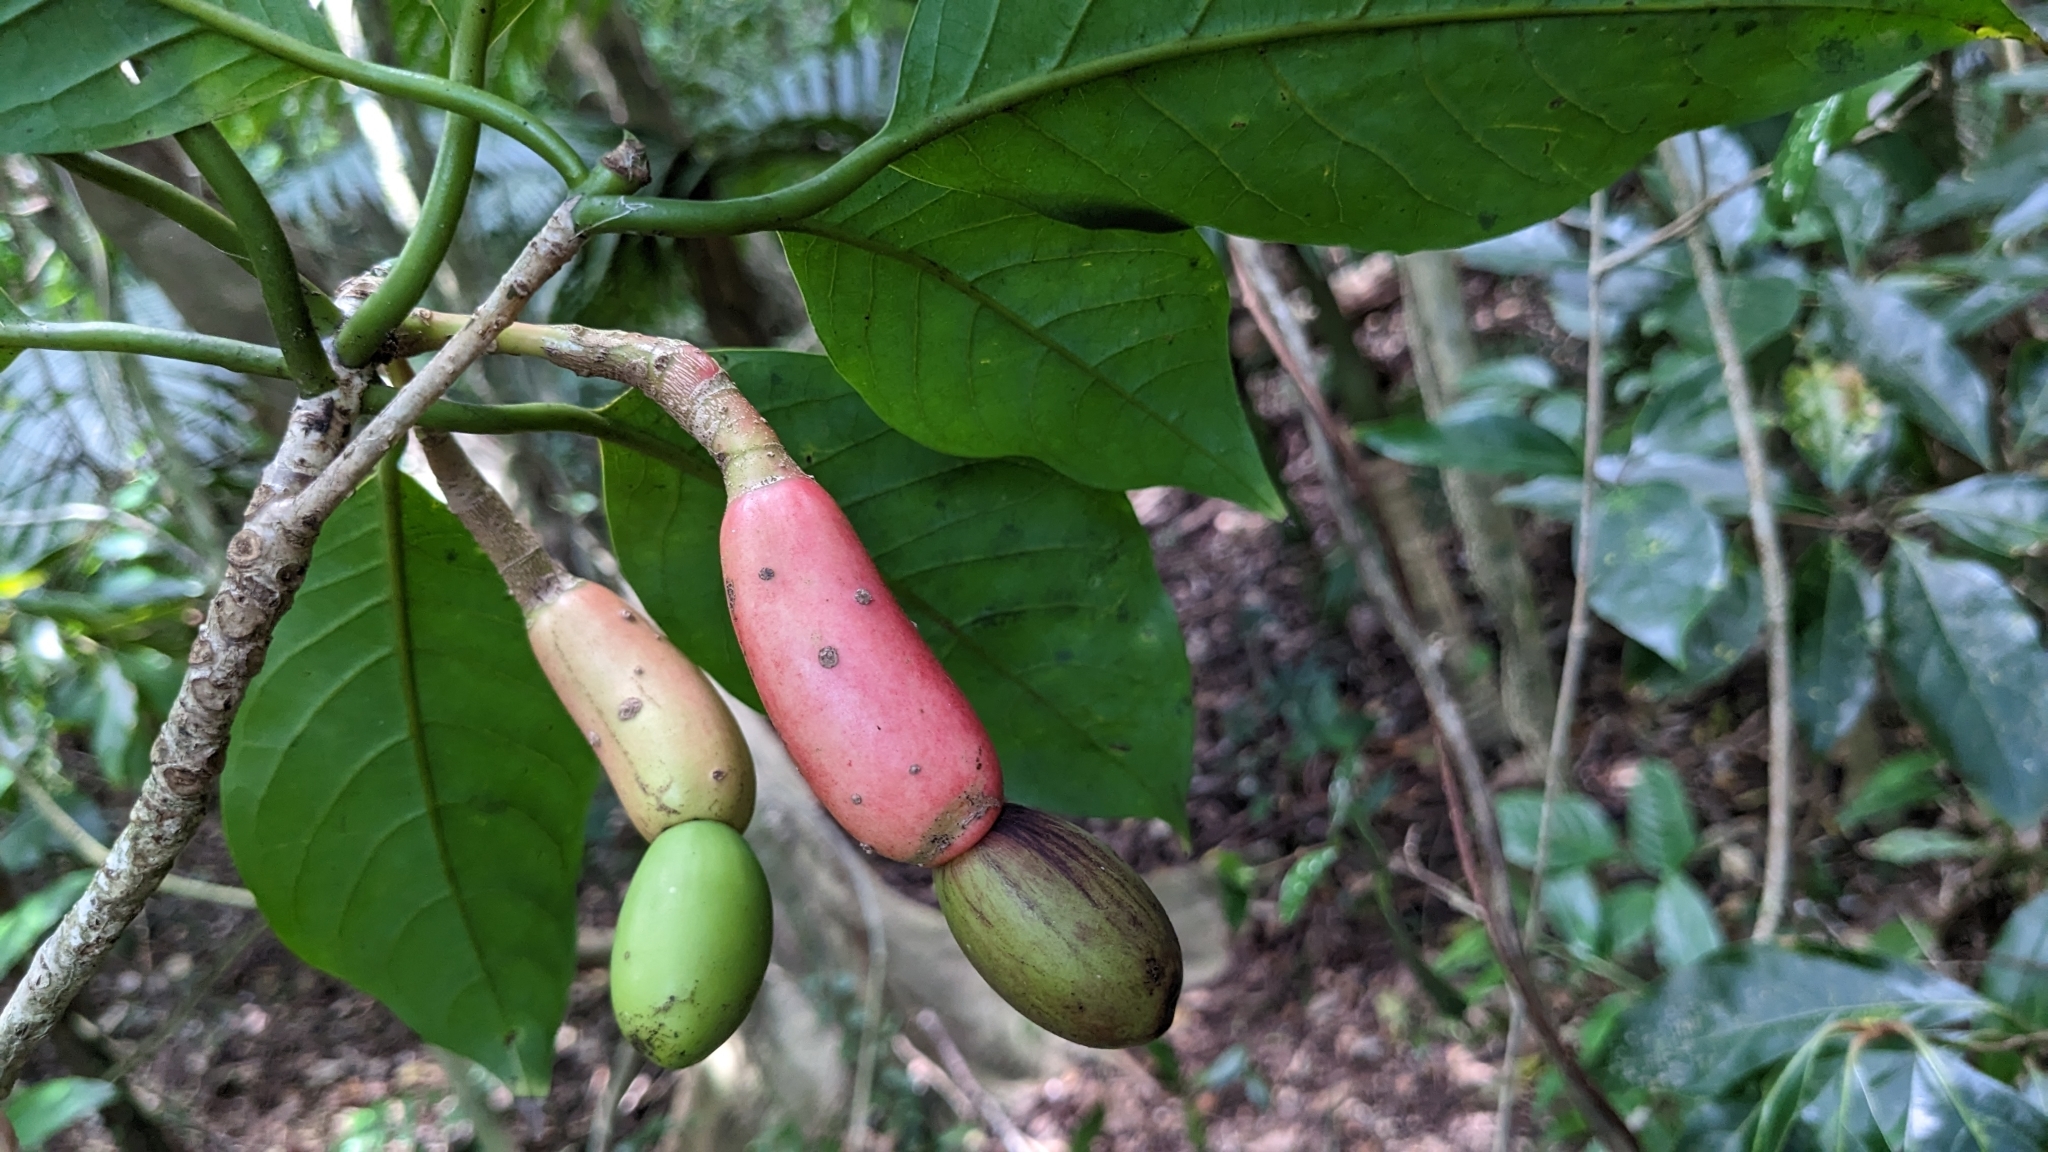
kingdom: Plantae
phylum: Tracheophyta
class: Magnoliopsida
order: Laurales
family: Lauraceae
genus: Dehaasia
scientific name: Dehaasia incrassata
